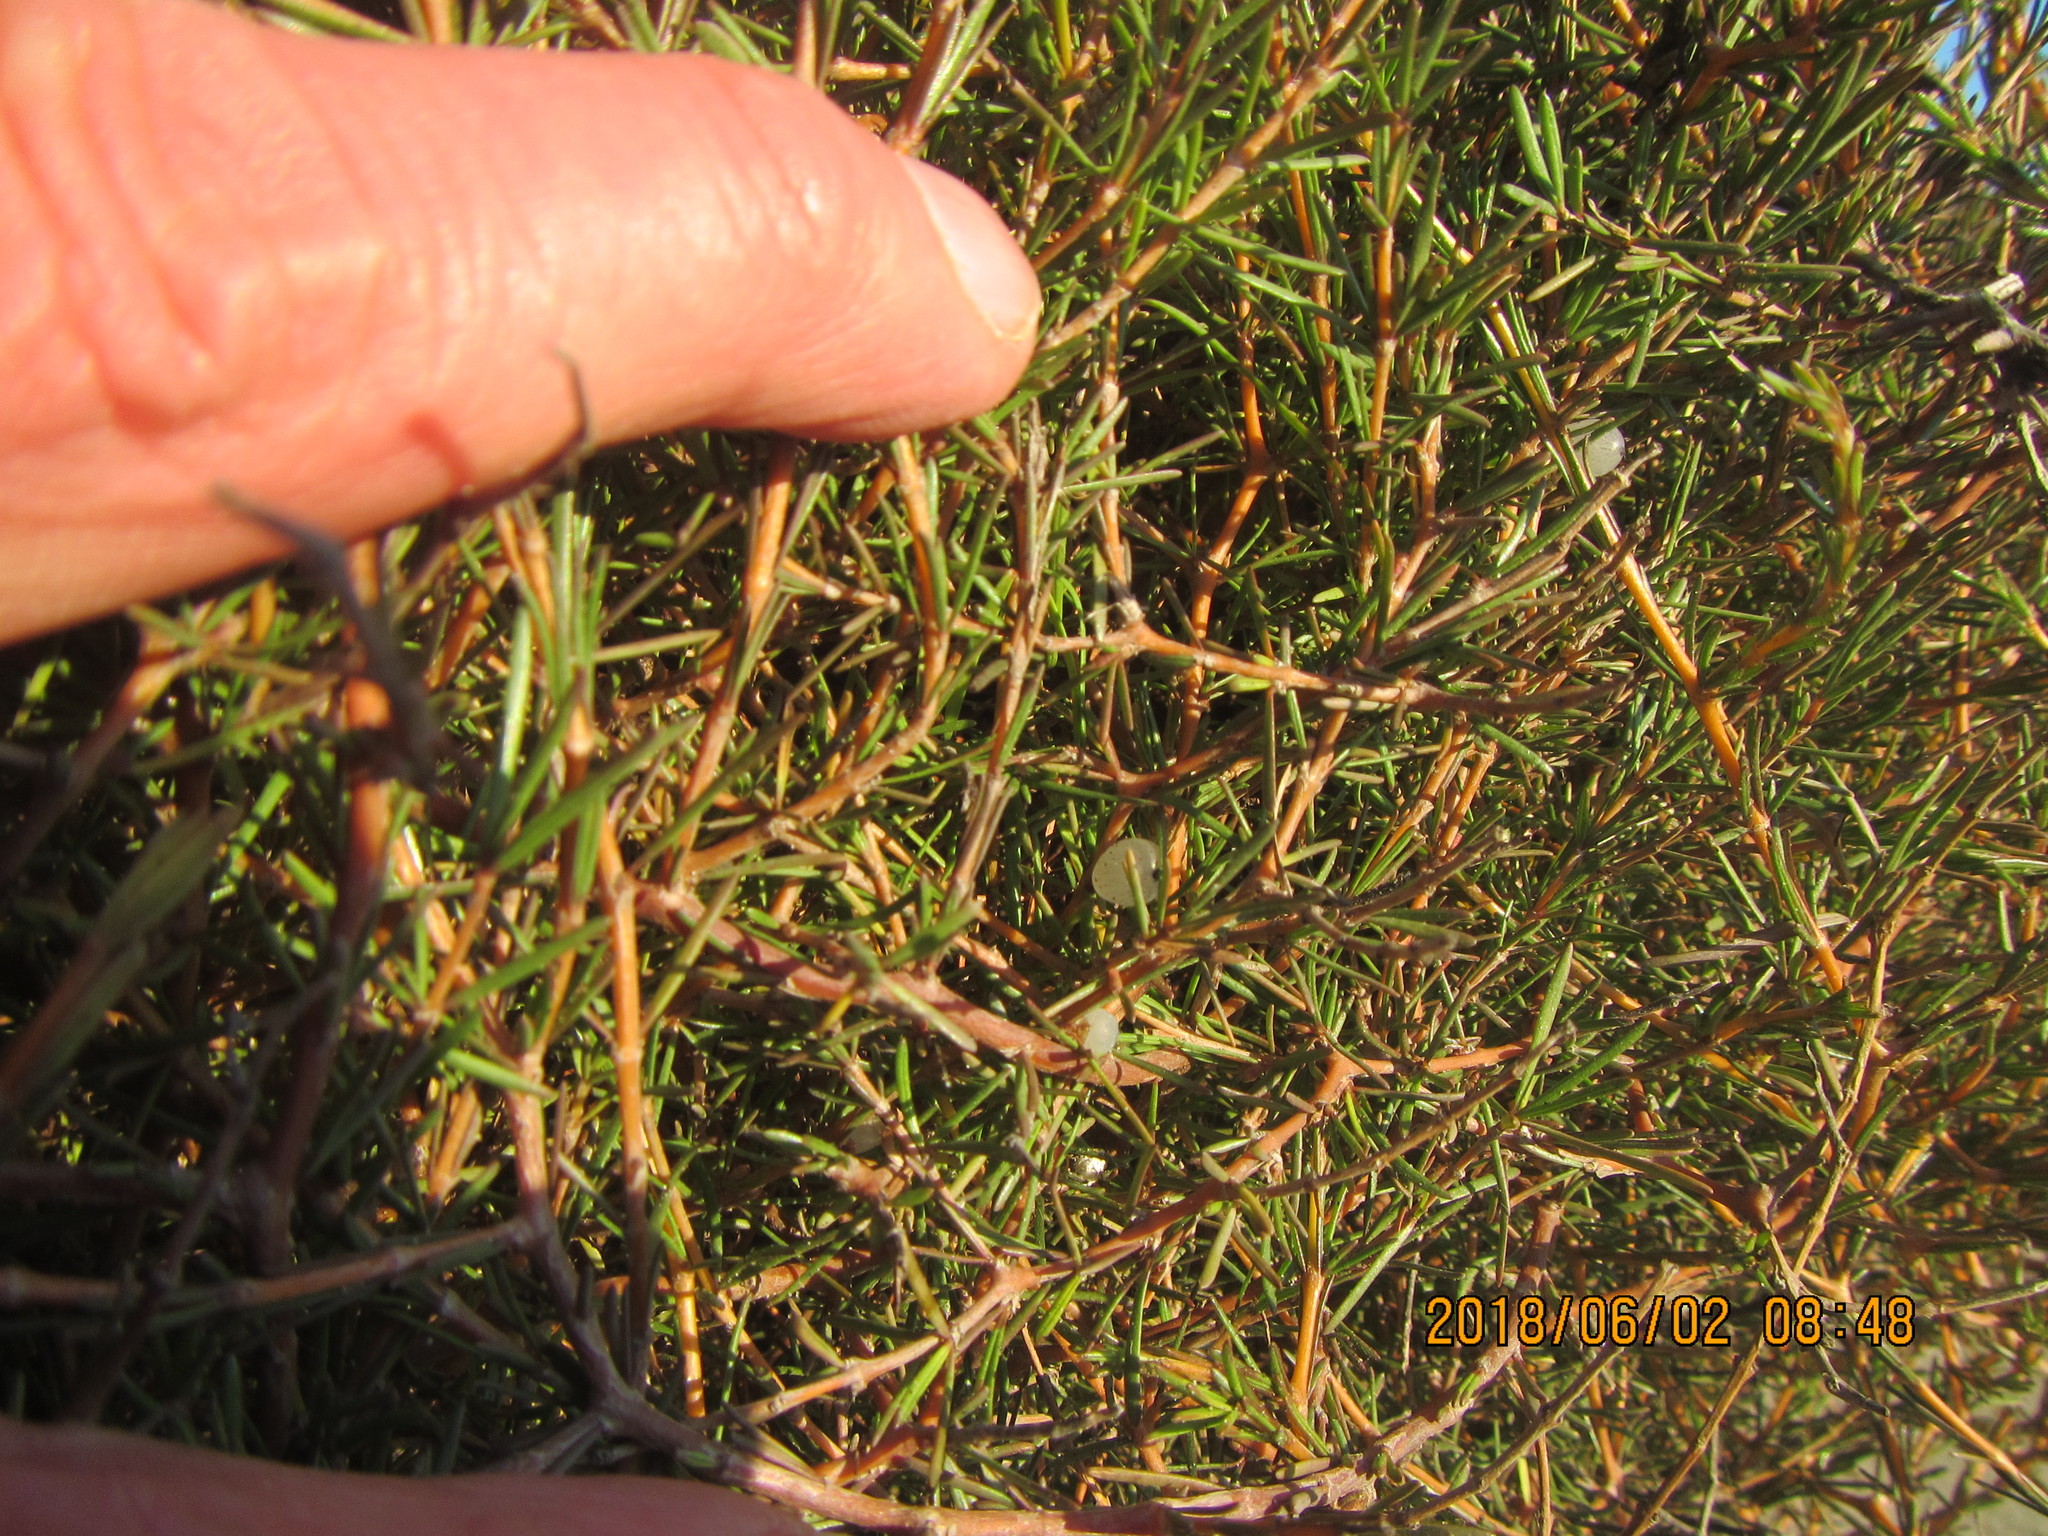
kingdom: Plantae
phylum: Tracheophyta
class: Magnoliopsida
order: Gentianales
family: Rubiaceae
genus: Coprosma
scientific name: Coprosma acerosa
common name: Sand coprosma
